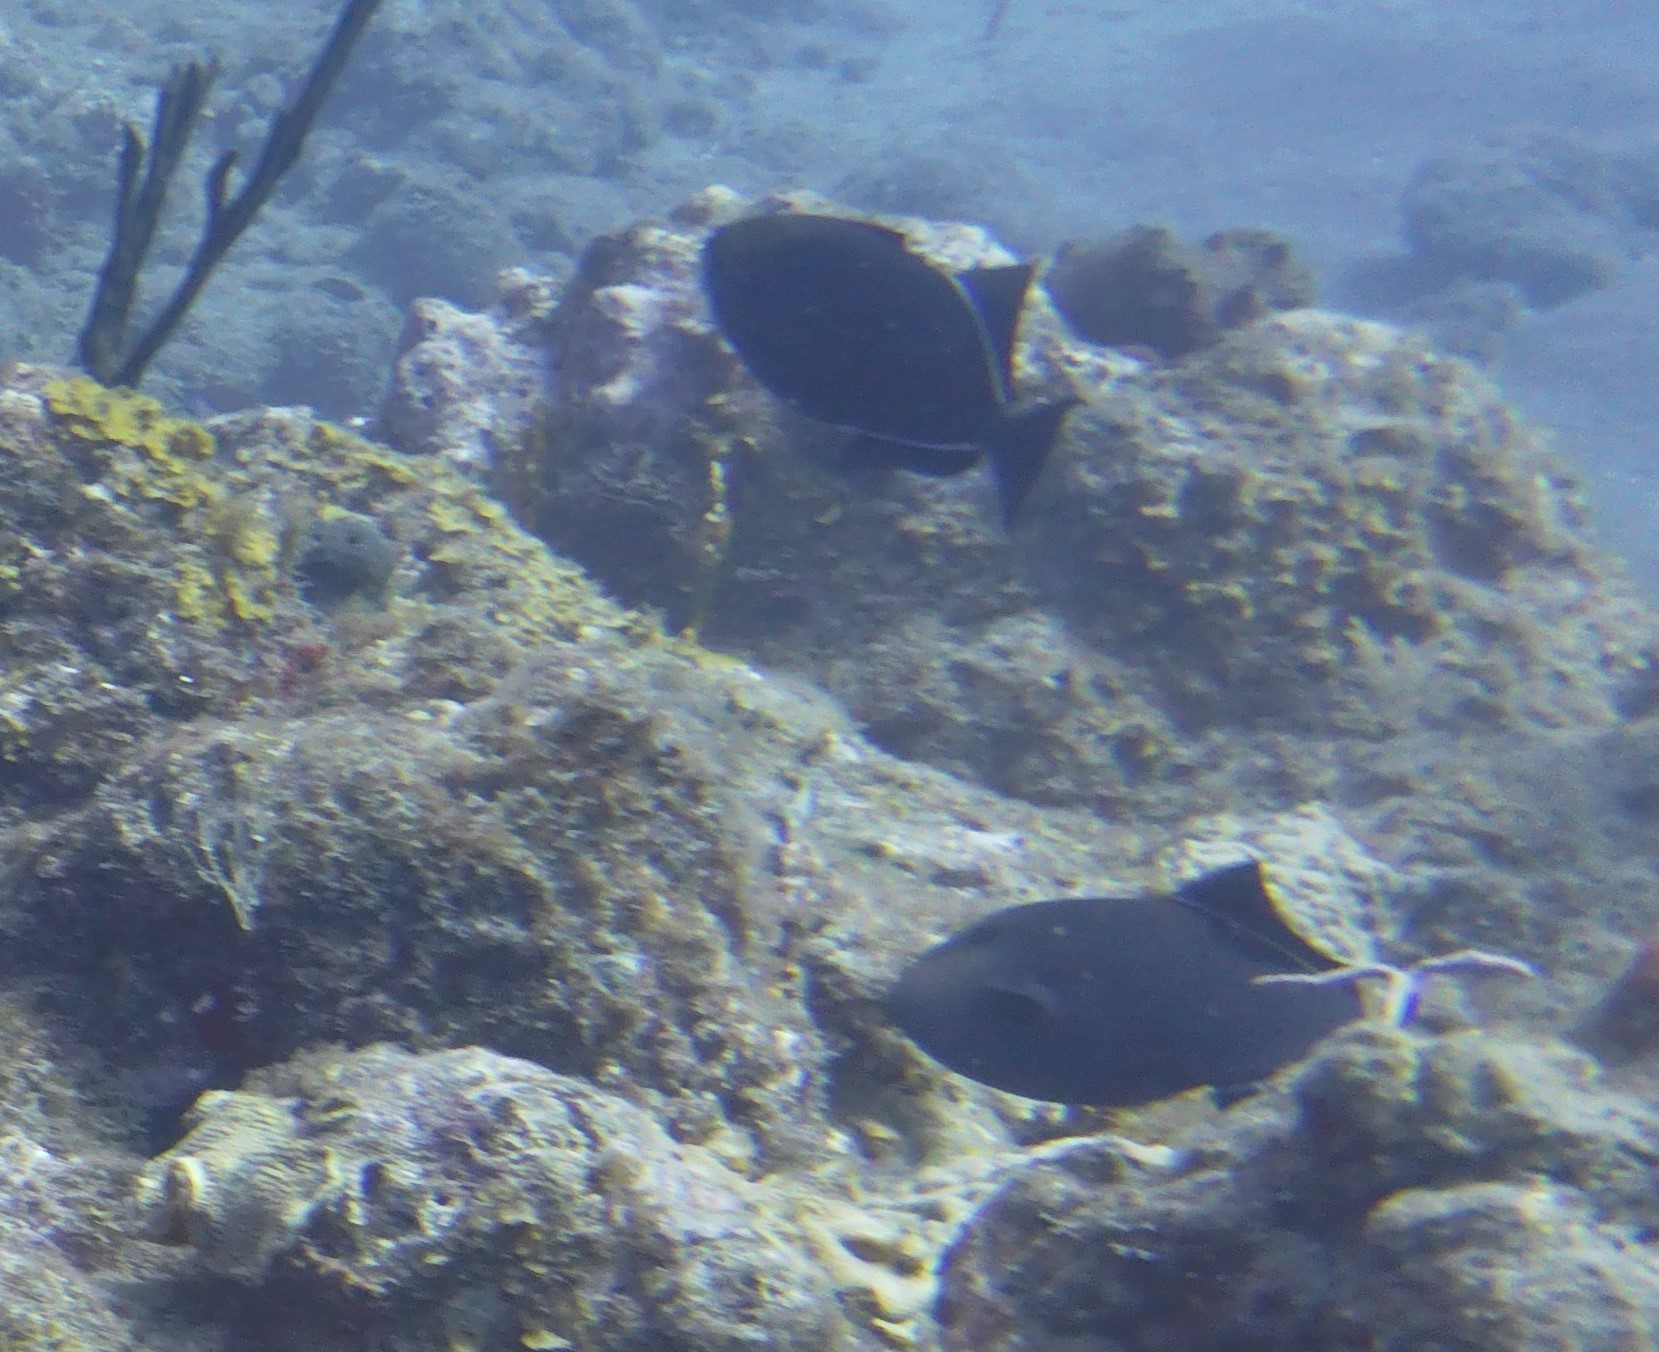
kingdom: Animalia
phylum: Chordata
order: Tetraodontiformes
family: Balistidae
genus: Melichthys
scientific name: Melichthys niger
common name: Black durgon
